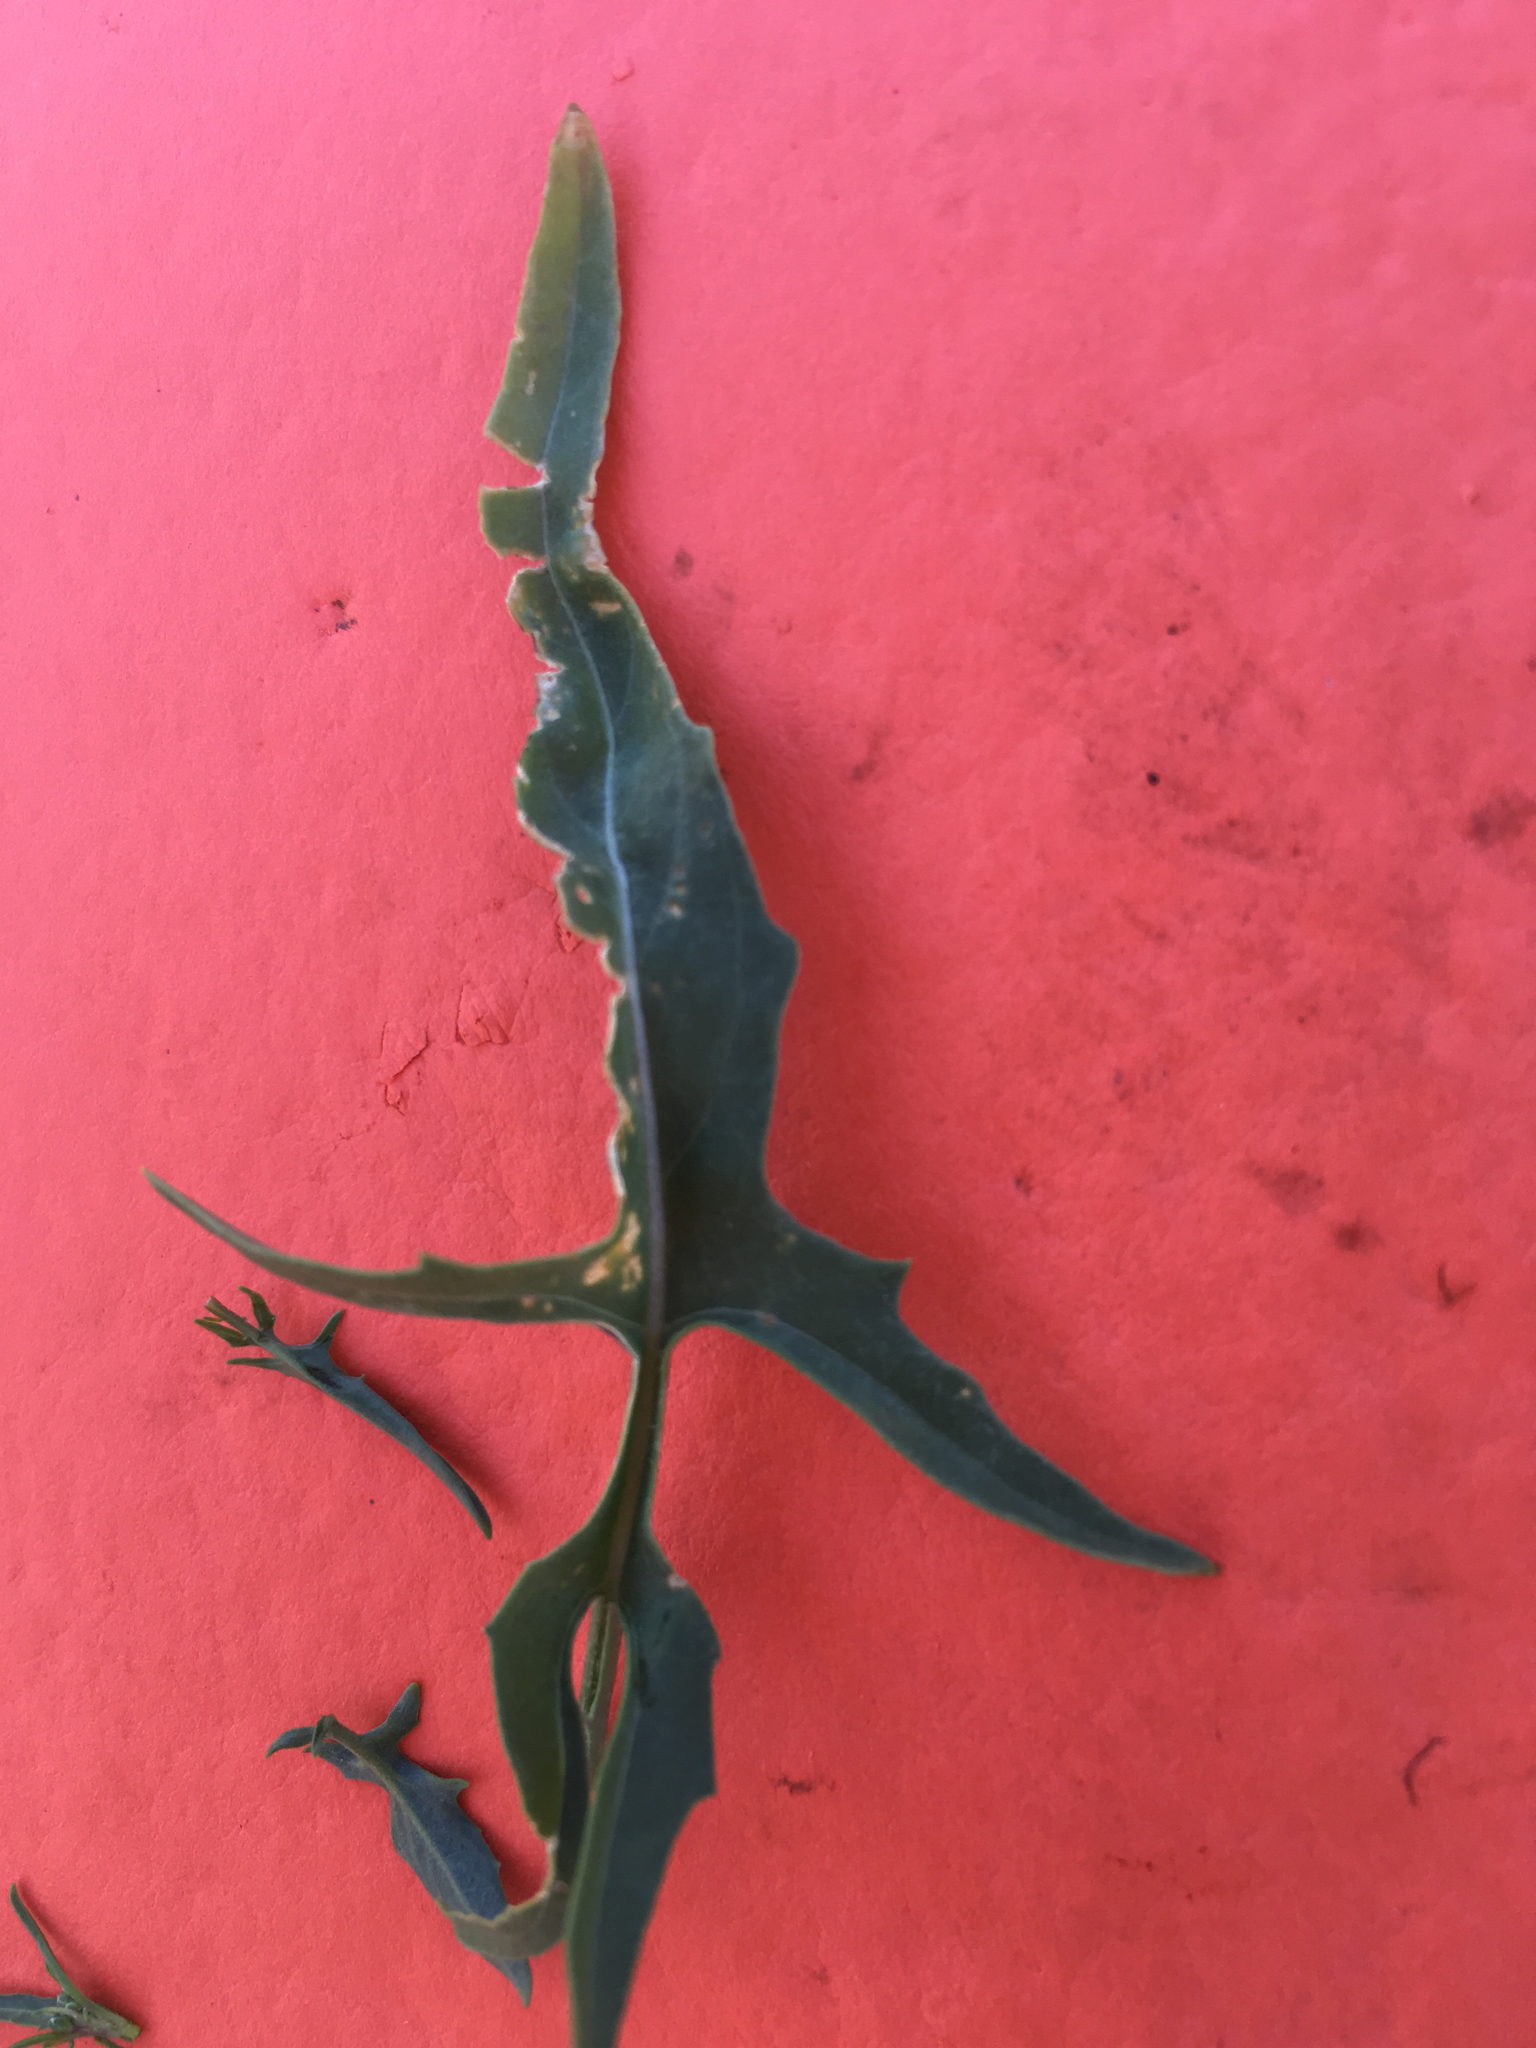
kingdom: Plantae
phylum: Tracheophyta
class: Magnoliopsida
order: Brassicales
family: Brassicaceae
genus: Sisymbrium
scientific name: Sisymbrium irio
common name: London rocket
